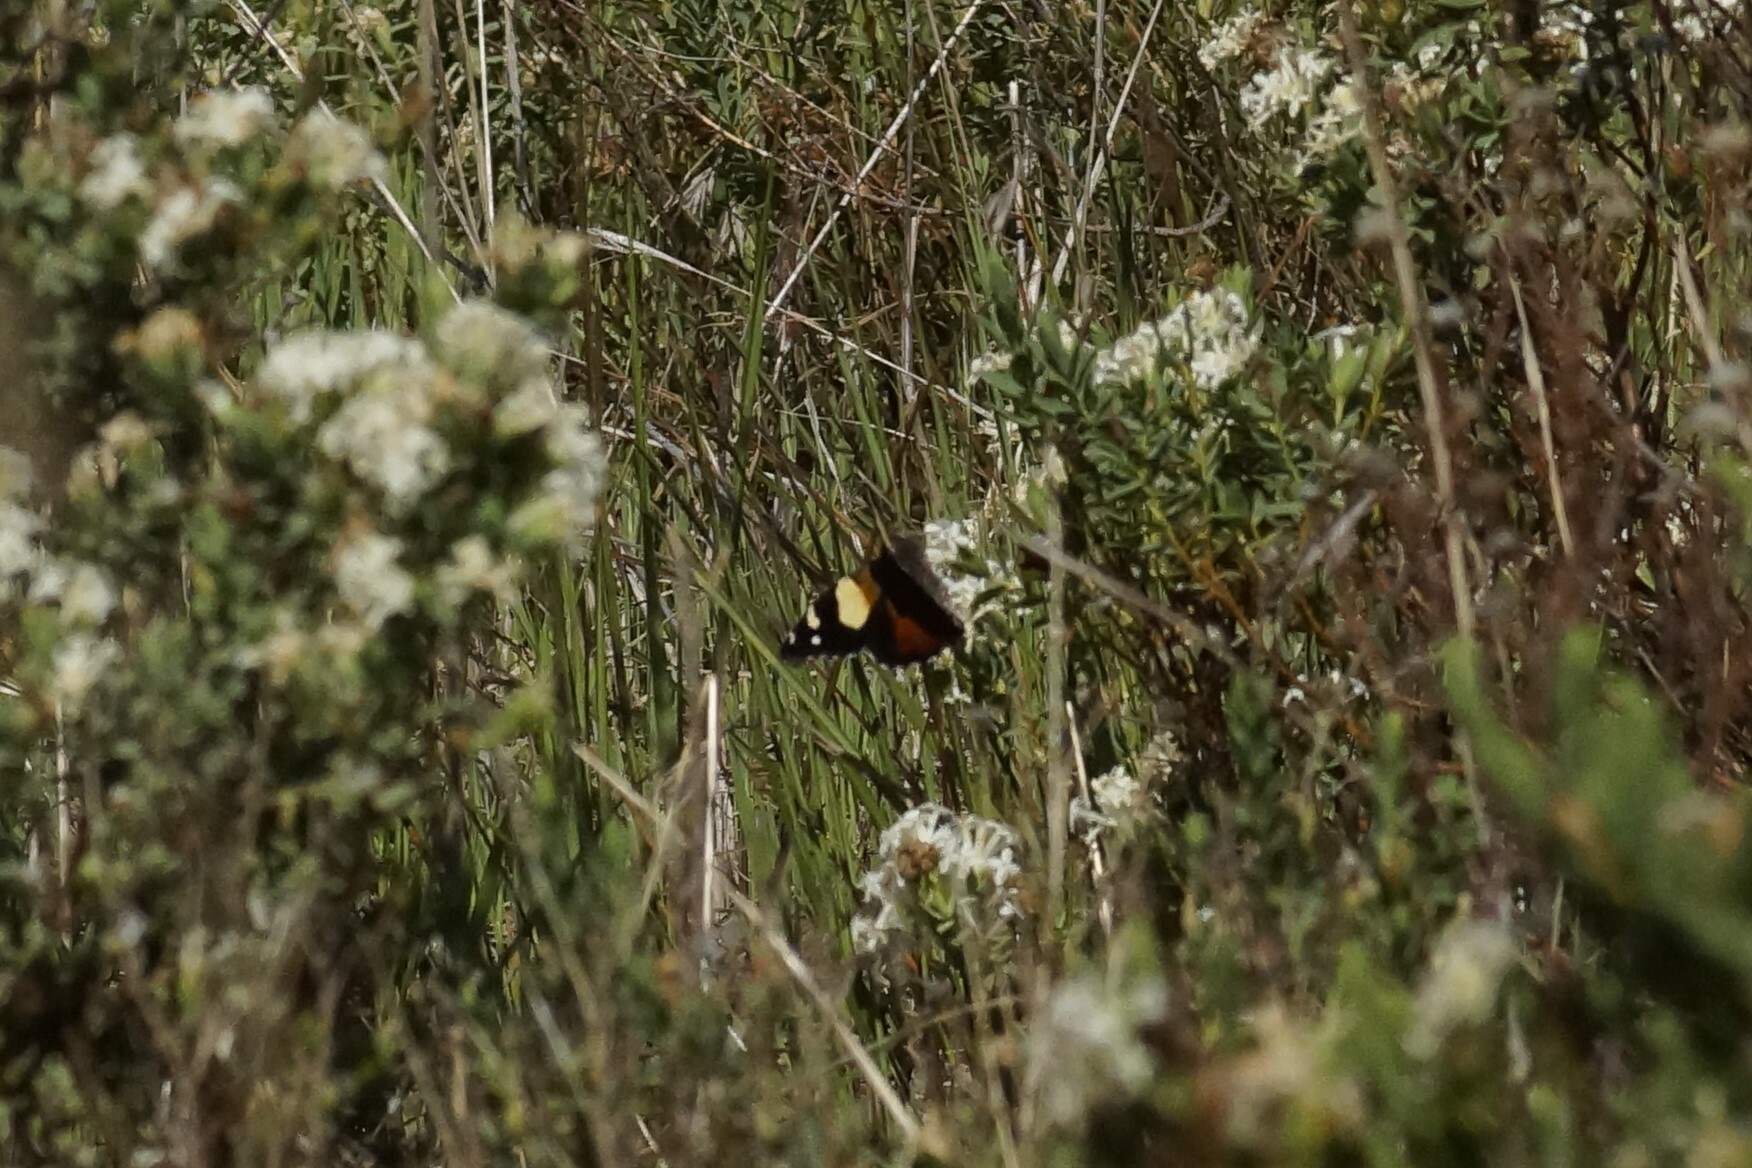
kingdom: Animalia
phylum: Arthropoda
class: Insecta
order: Lepidoptera
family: Nymphalidae
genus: Vanessa
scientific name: Vanessa itea
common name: Yellow admiral
